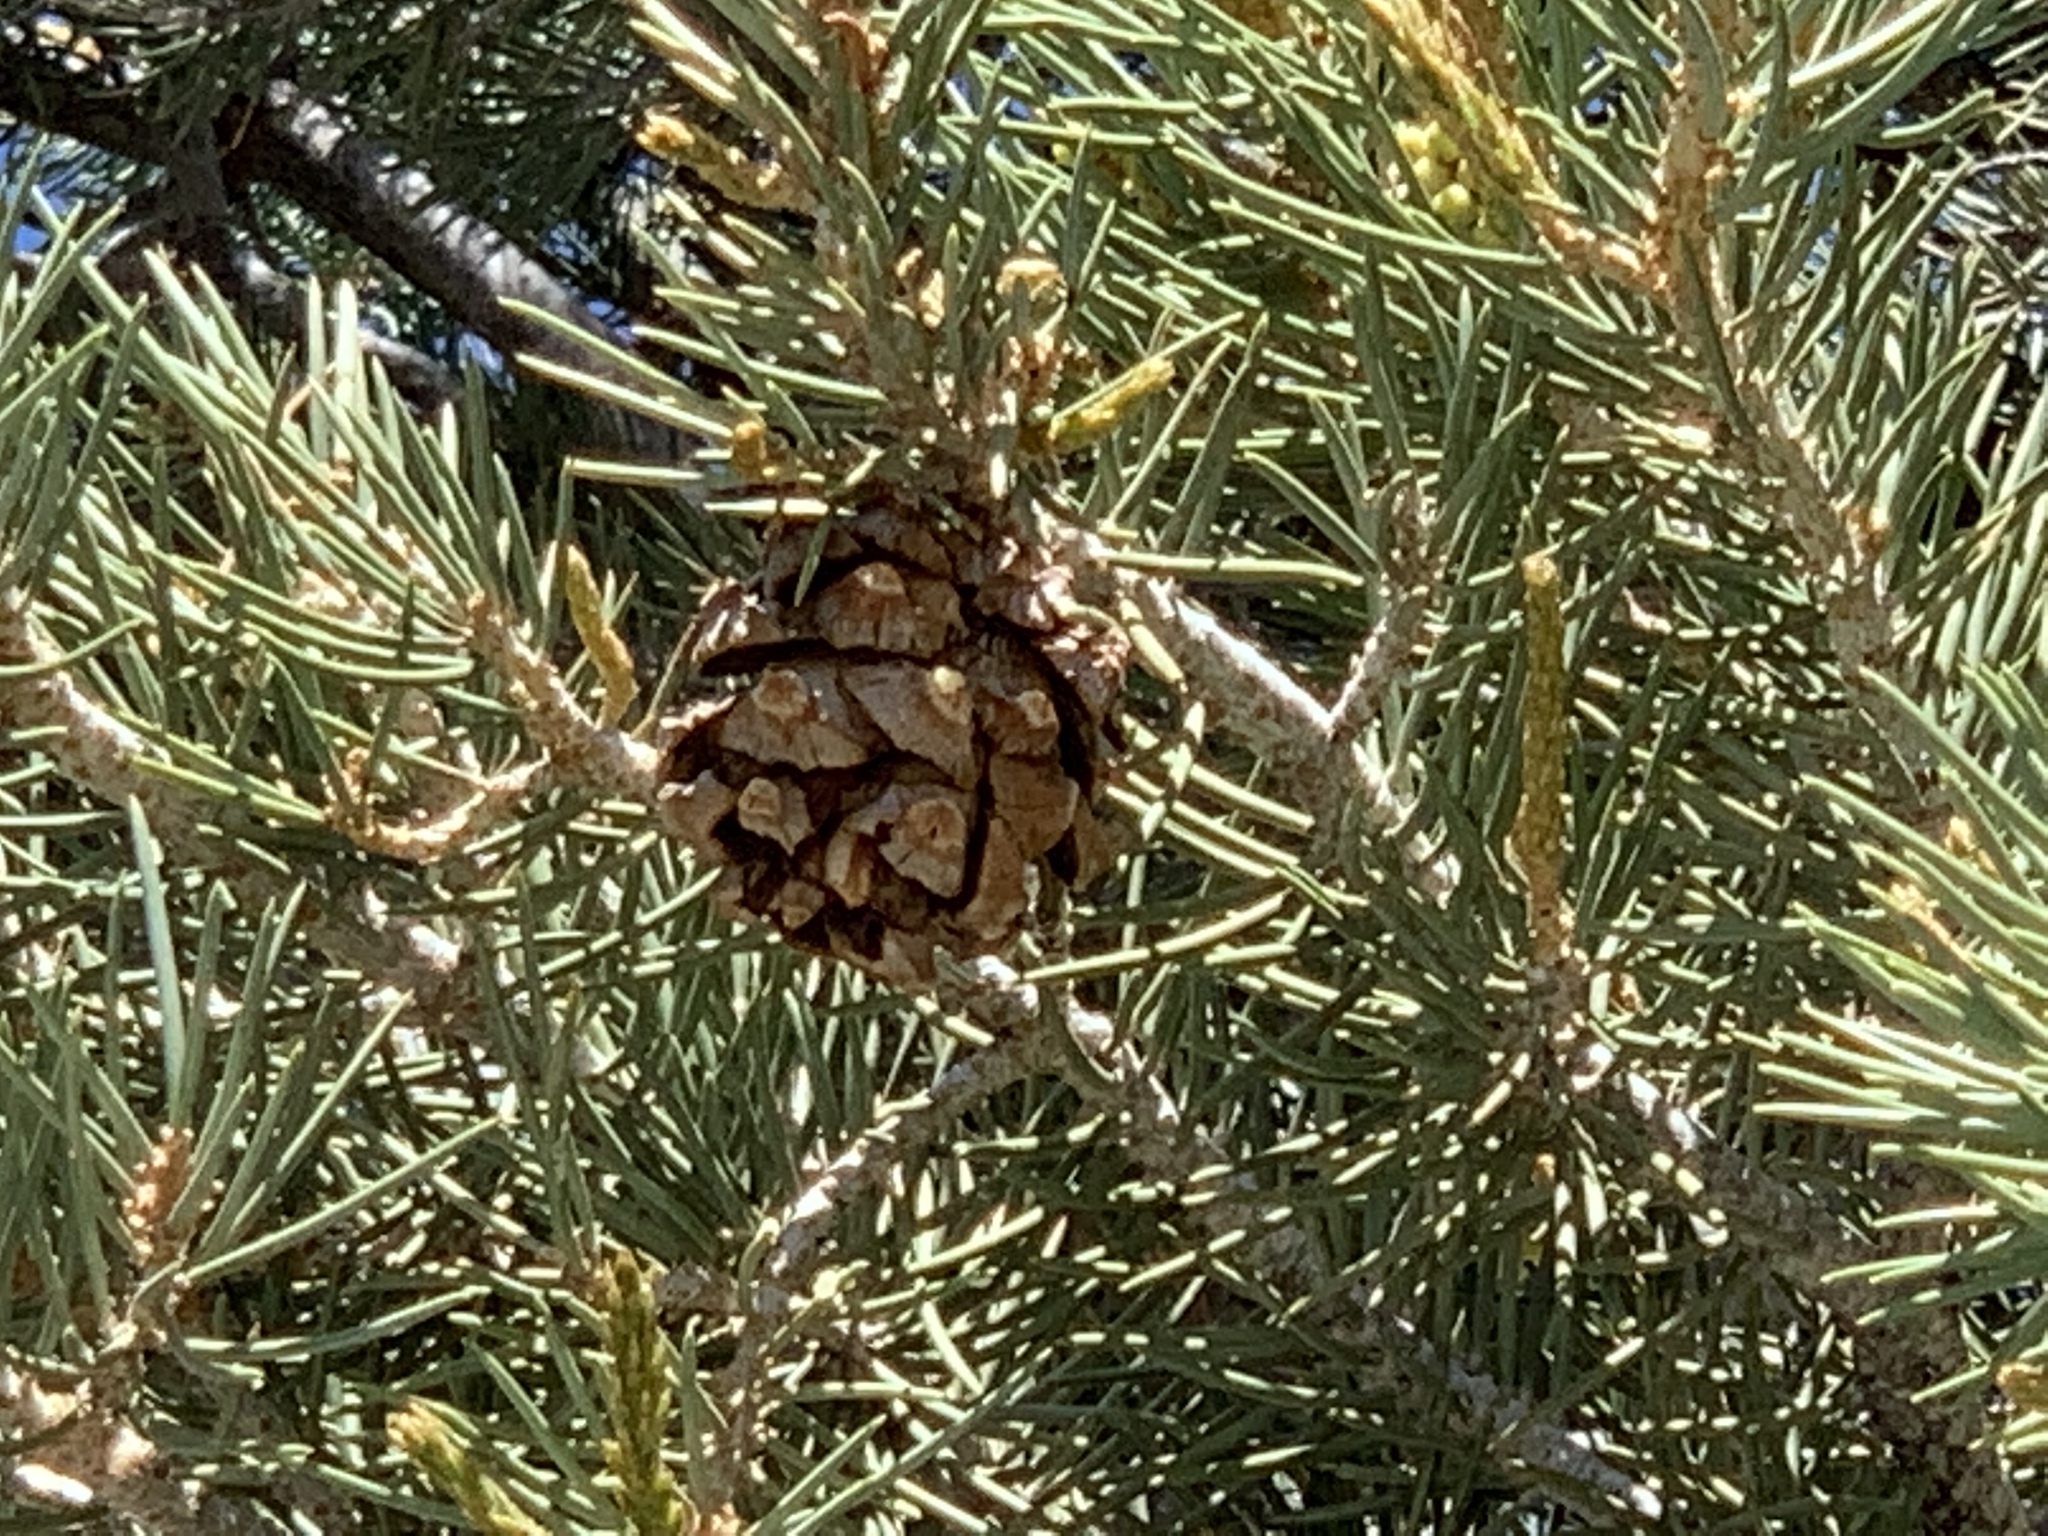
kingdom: Plantae
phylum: Tracheophyta
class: Pinopsida
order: Pinales
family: Pinaceae
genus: Pinus
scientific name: Pinus monophylla
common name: One-leaved nut pine
